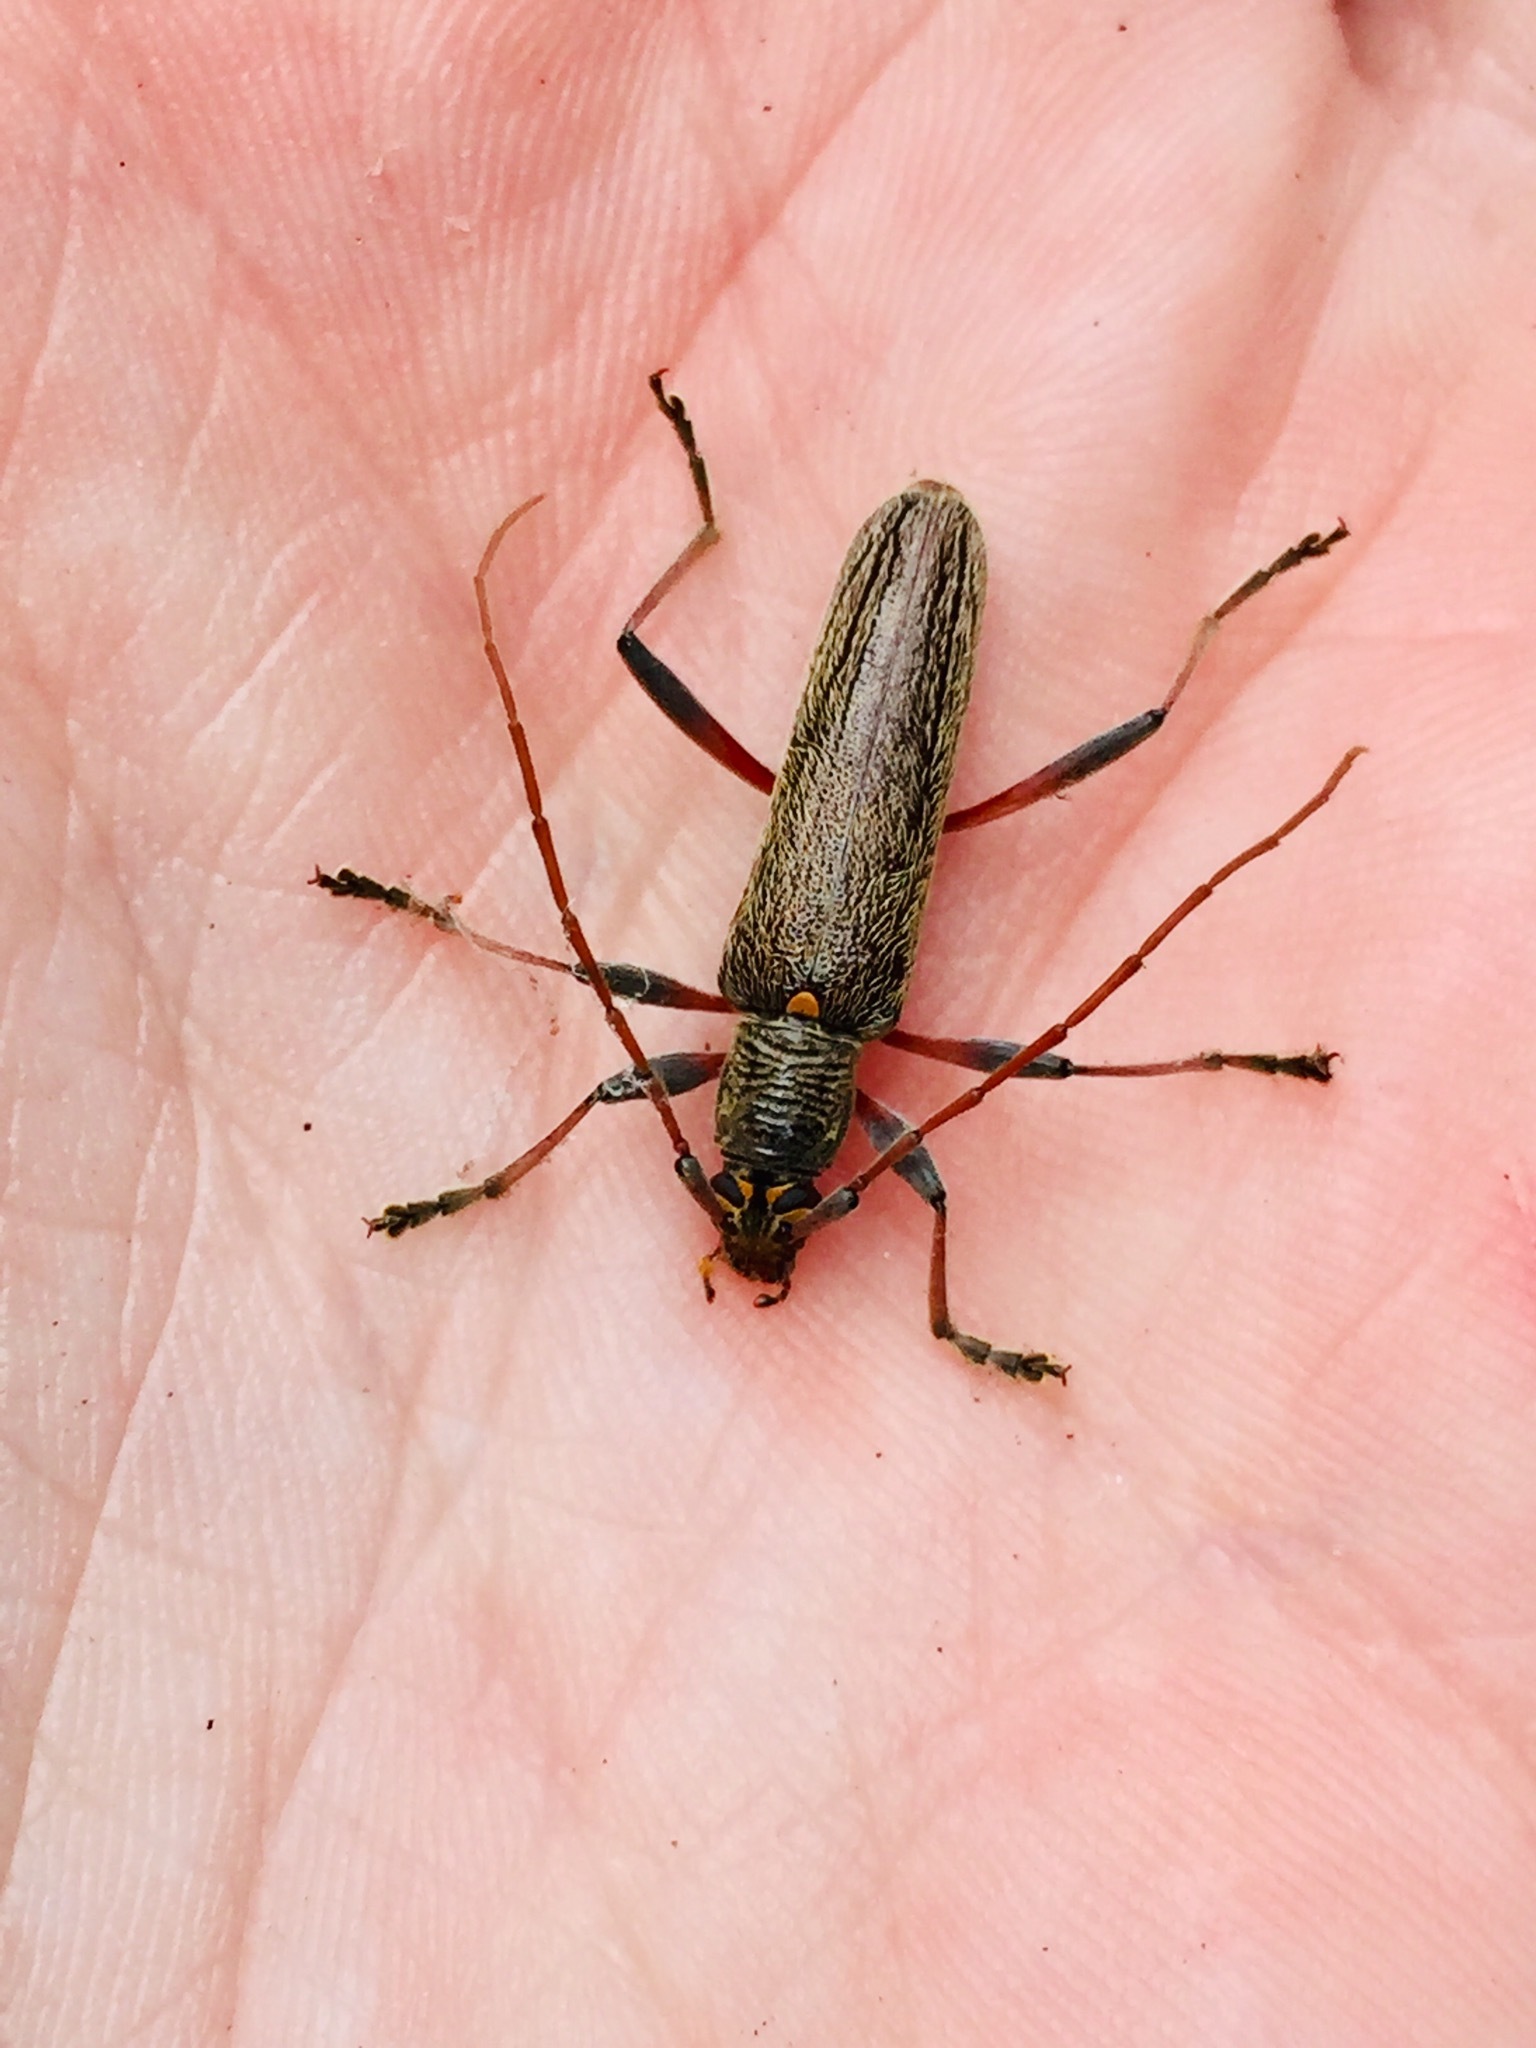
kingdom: Animalia
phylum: Arthropoda
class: Insecta
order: Coleoptera
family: Cerambycidae
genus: Oemona
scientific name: Oemona hirta
